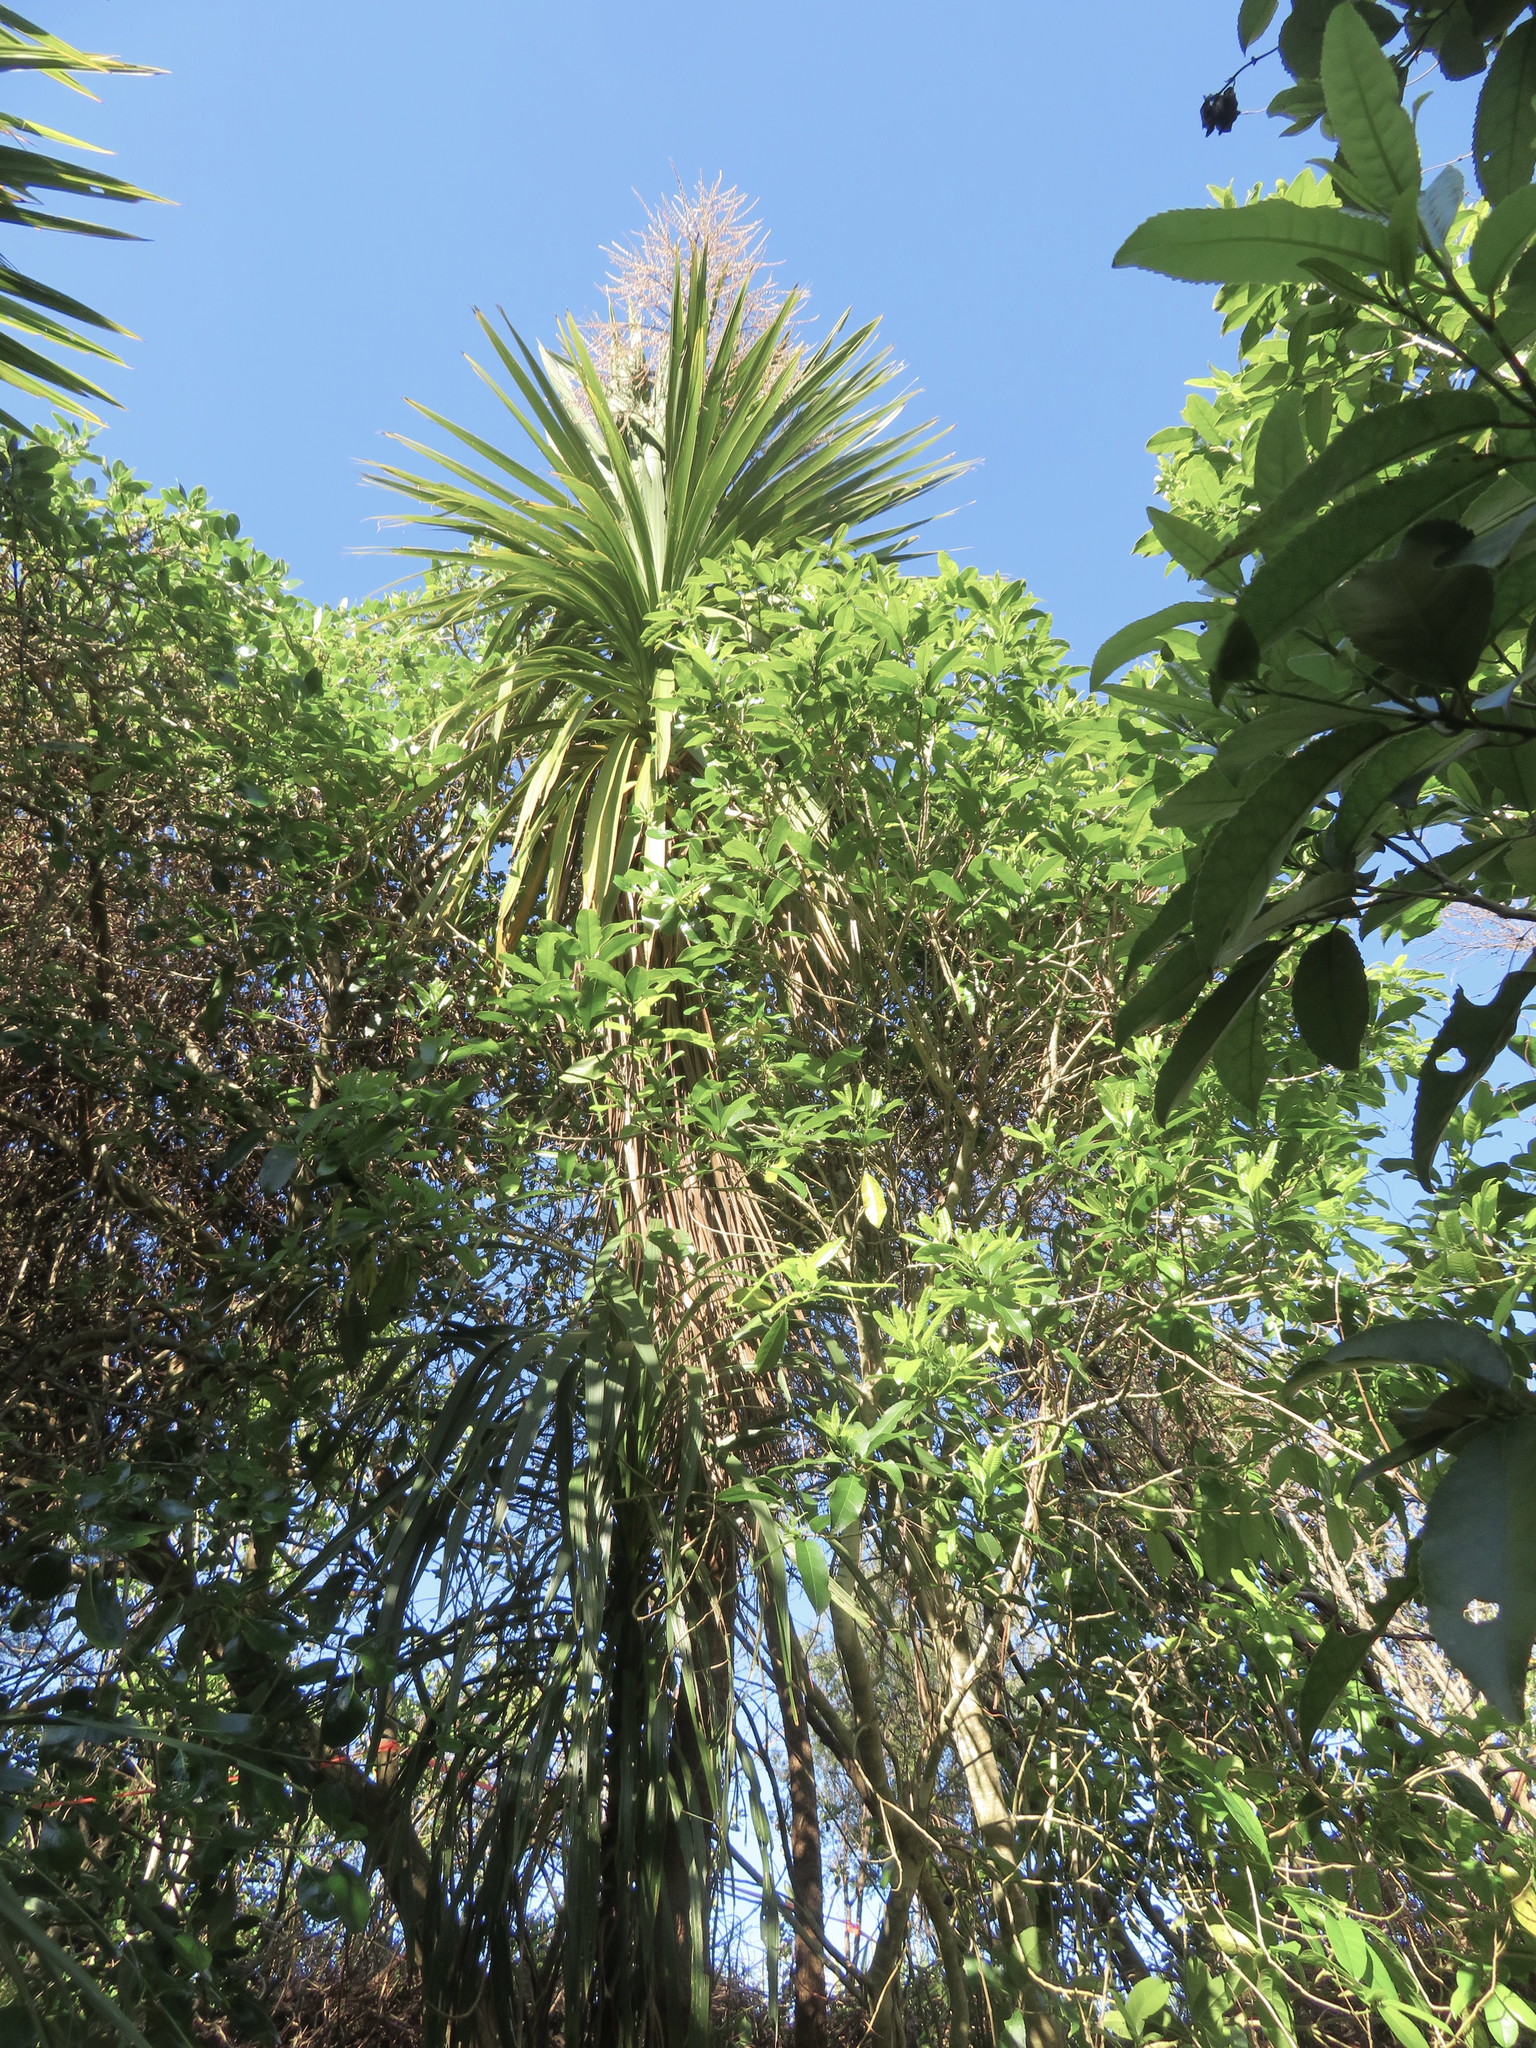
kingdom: Plantae
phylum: Tracheophyta
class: Magnoliopsida
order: Malpighiales
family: Violaceae
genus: Melicytus
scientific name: Melicytus ramiflorus
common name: Mahoe
